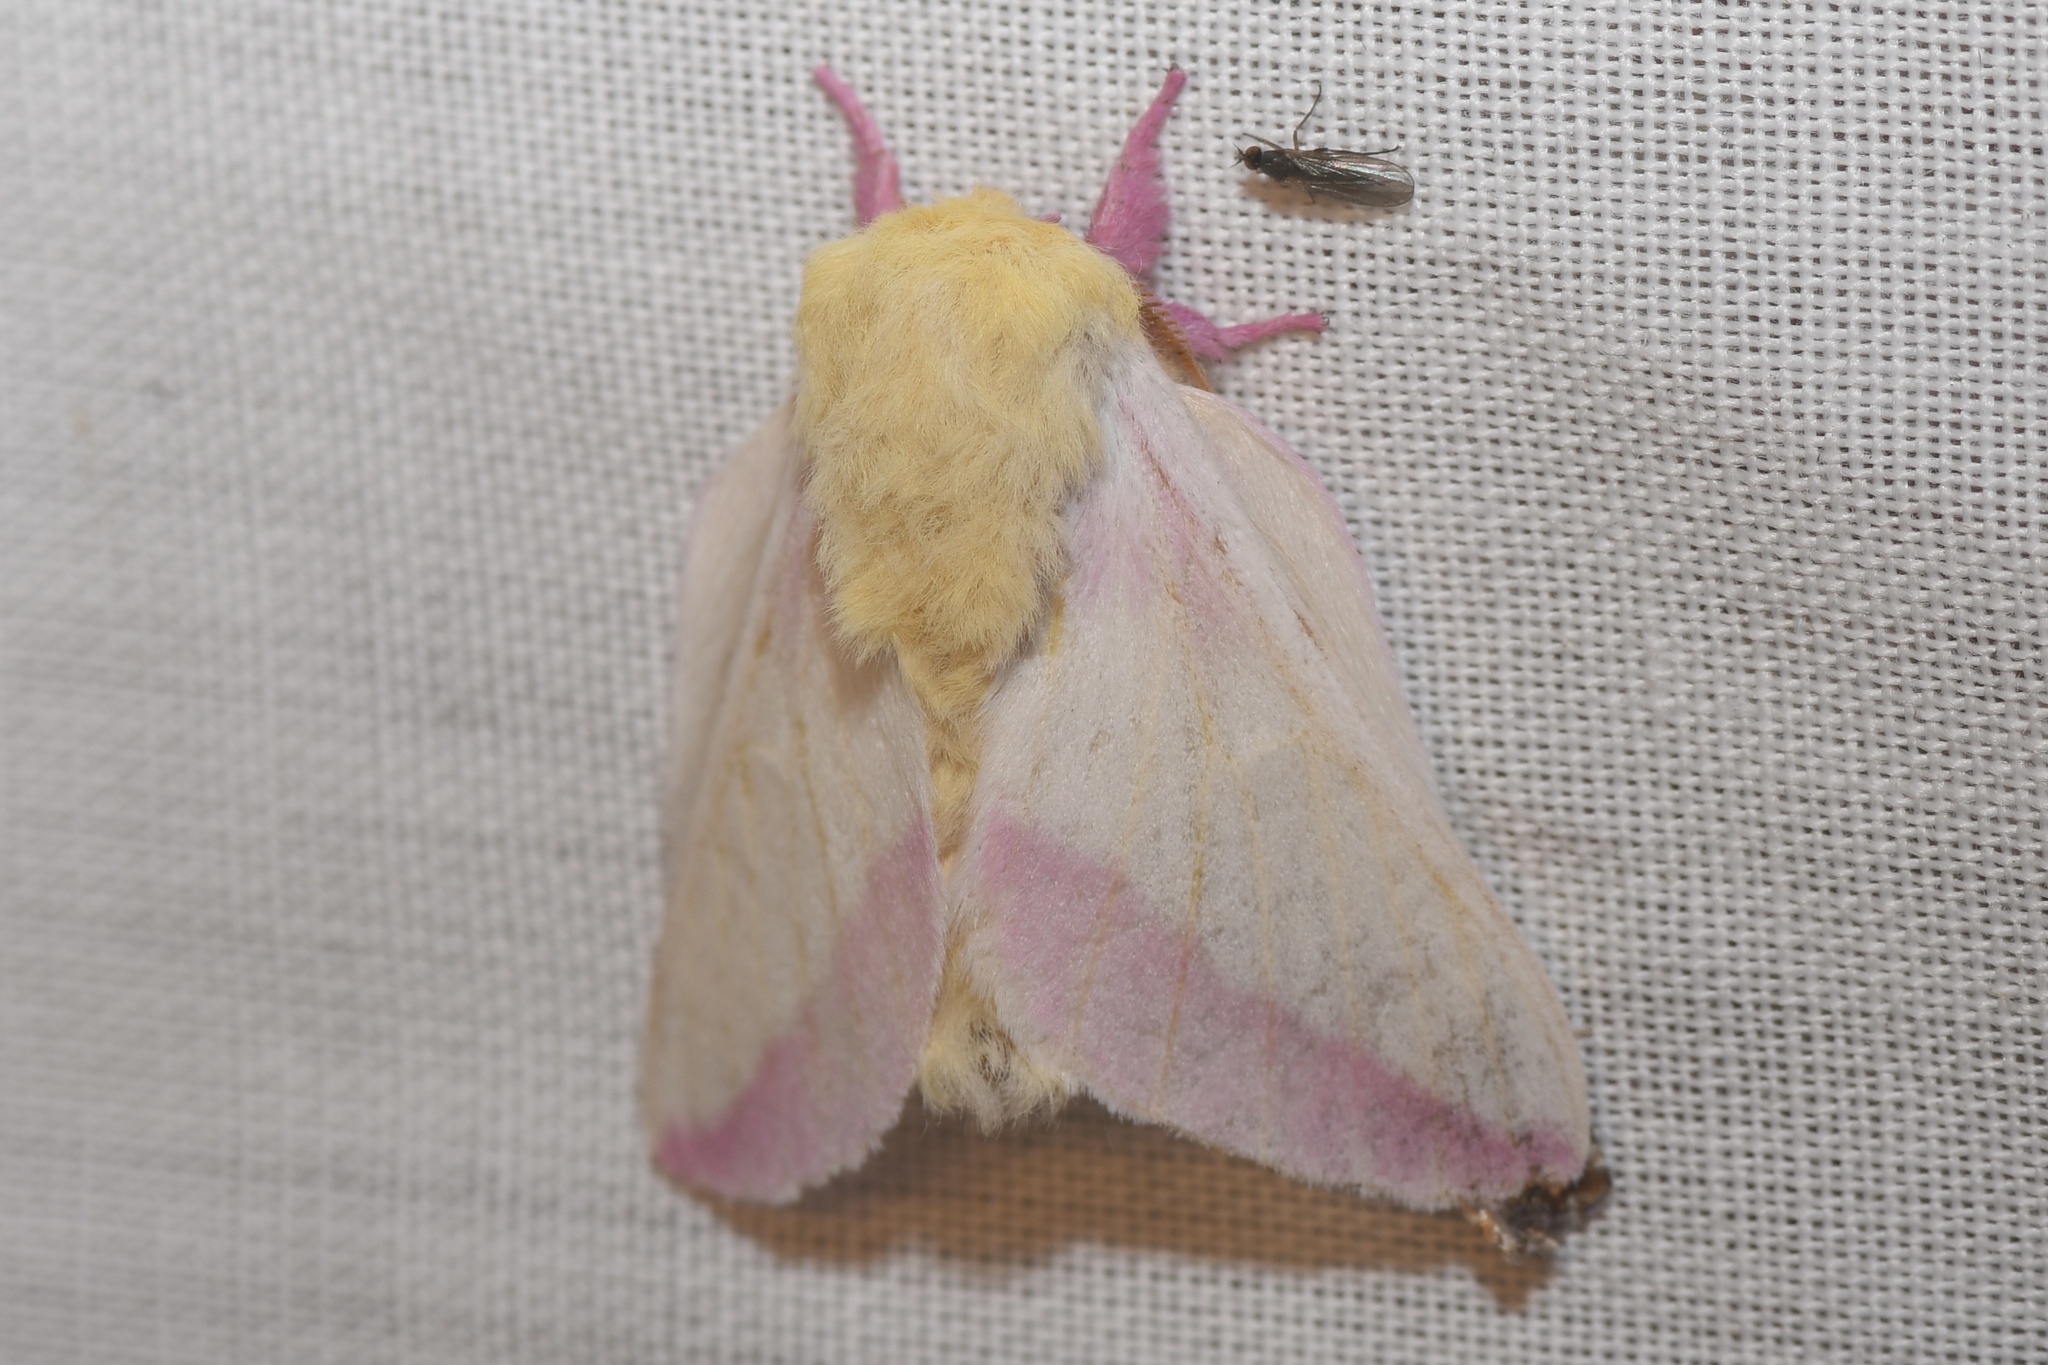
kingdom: Animalia
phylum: Arthropoda
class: Insecta
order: Lepidoptera
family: Saturniidae
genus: Dryocampa
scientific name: Dryocampa rubicunda
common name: Rosy maple moth
